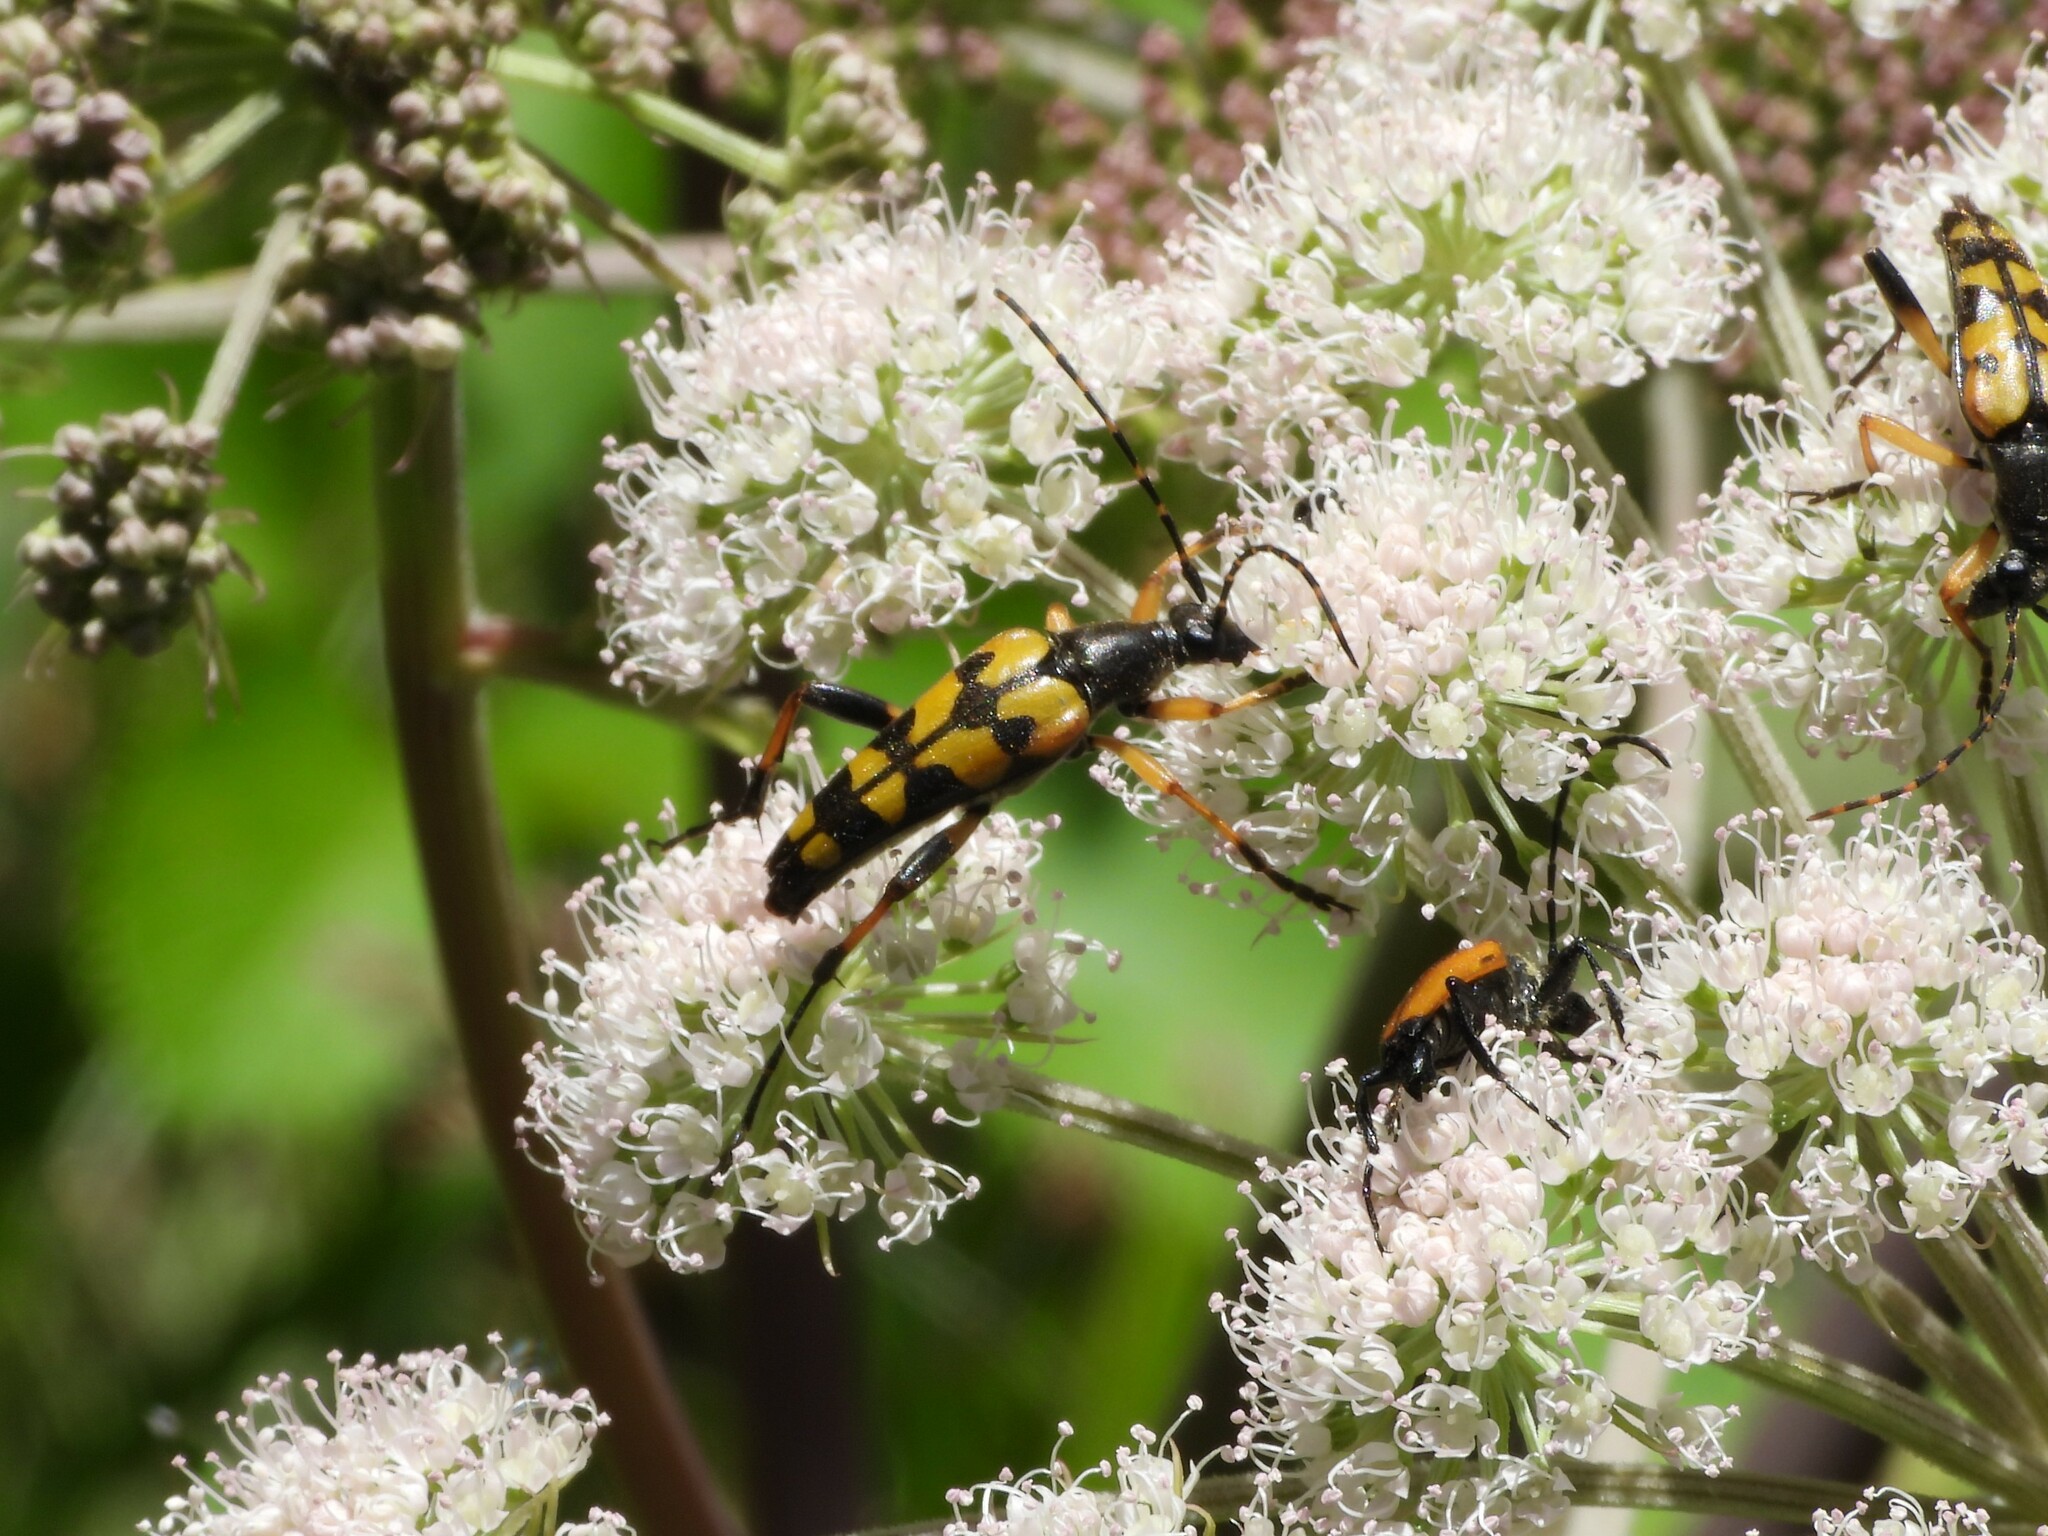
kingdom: Animalia
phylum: Arthropoda
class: Insecta
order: Coleoptera
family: Cerambycidae
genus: Rutpela
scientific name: Rutpela maculata
